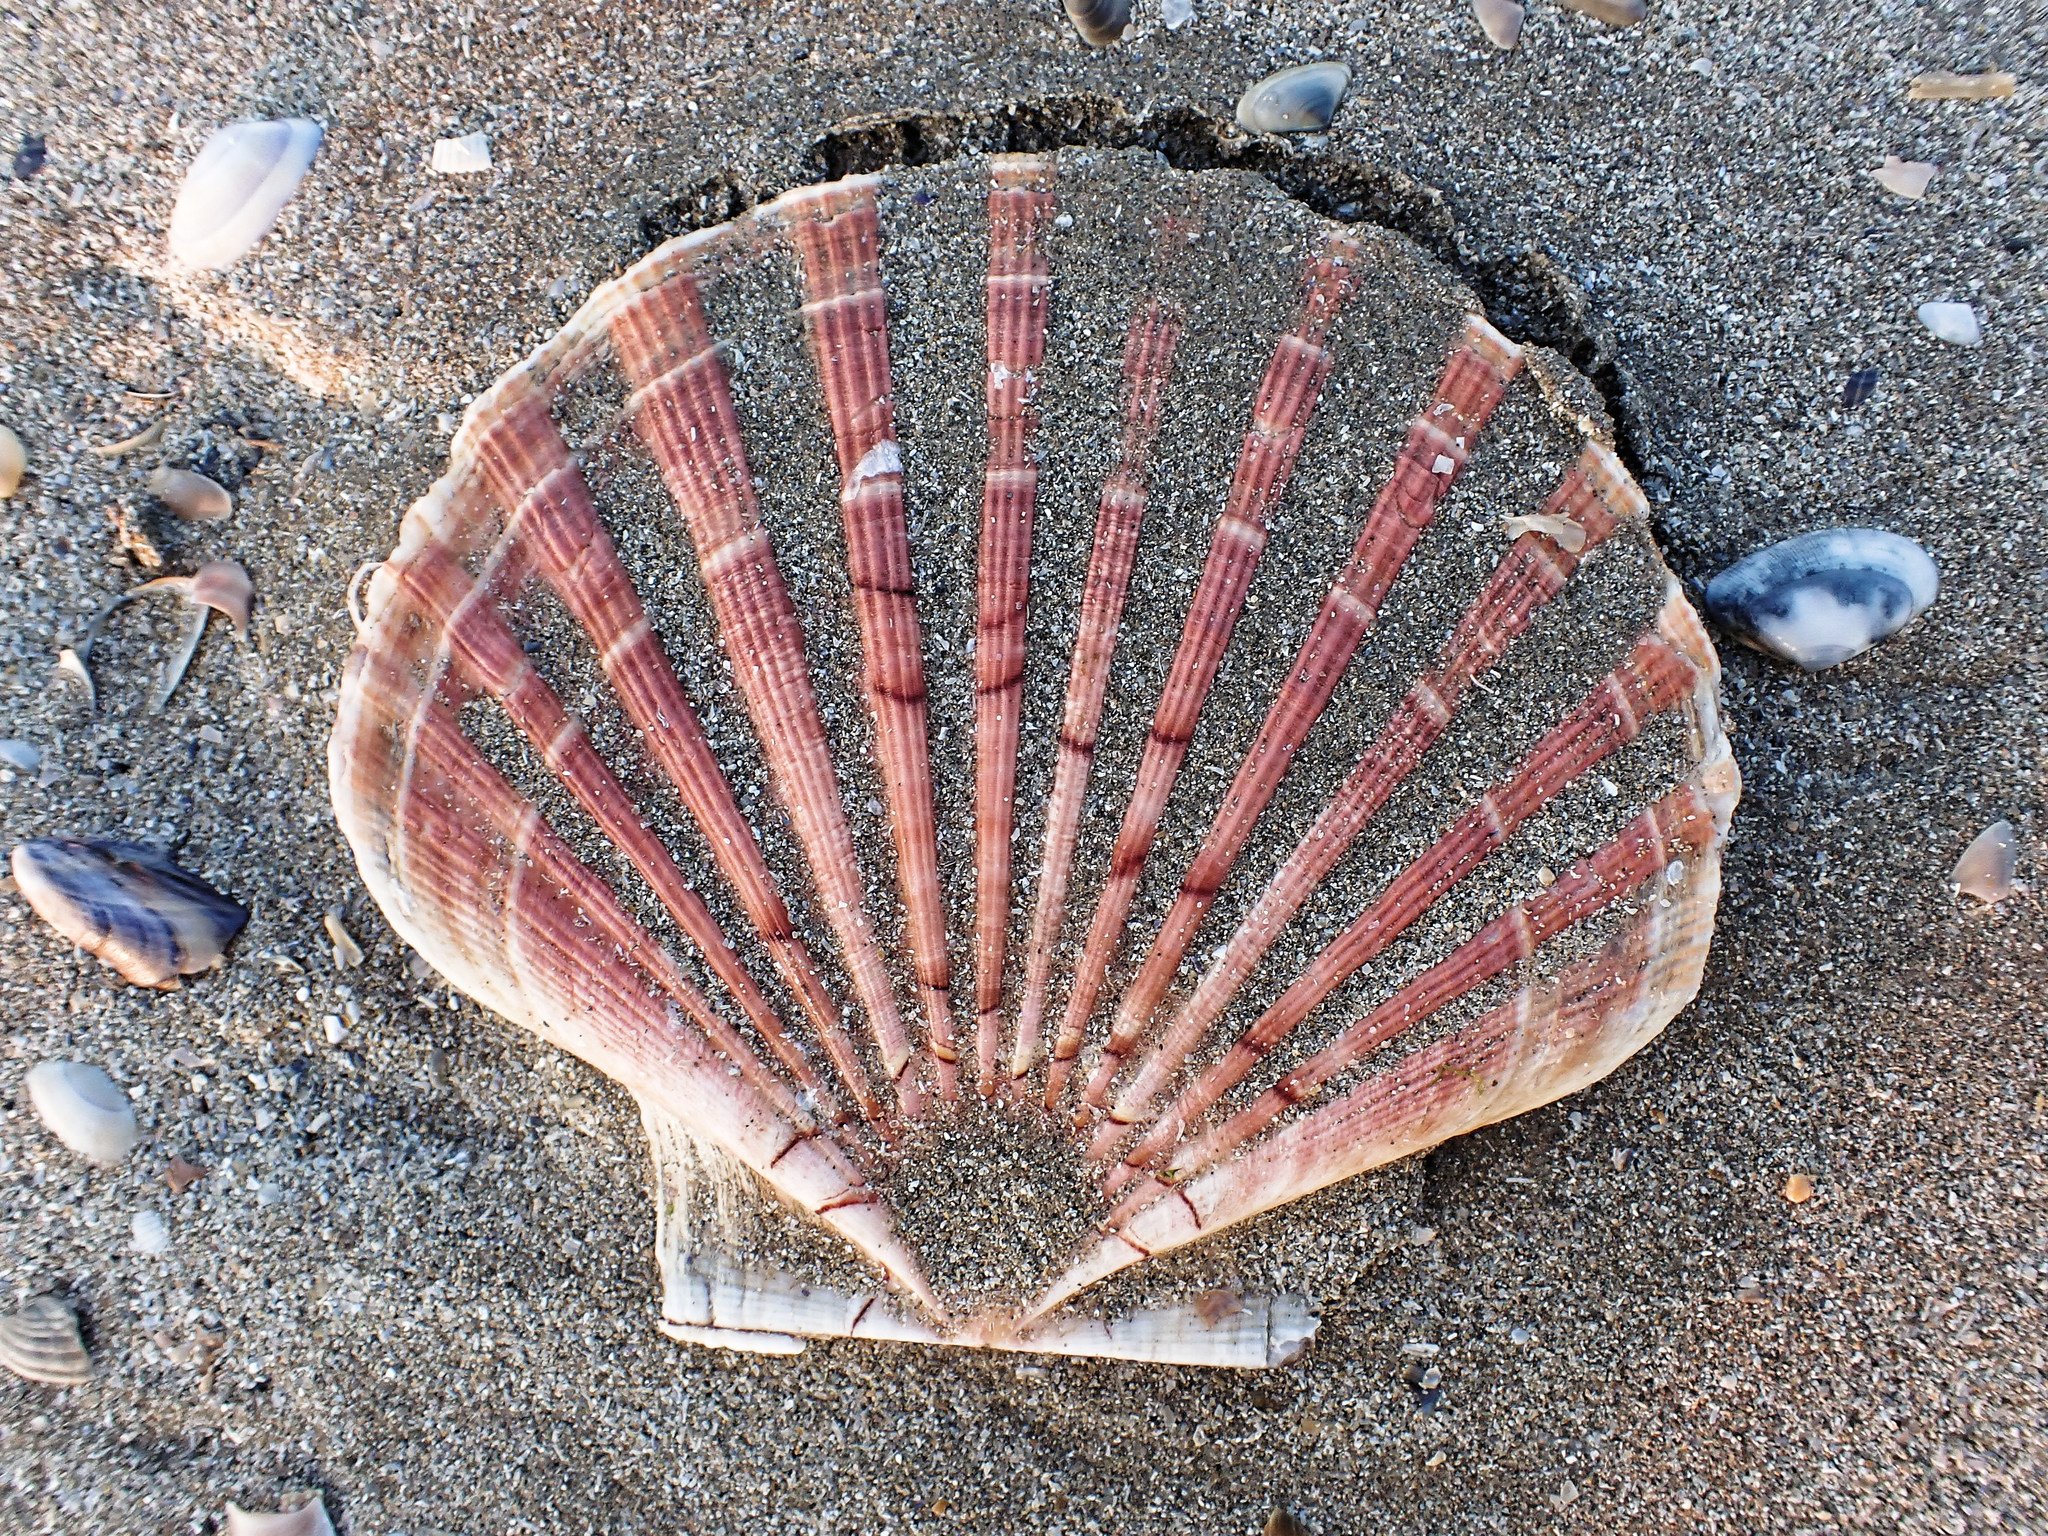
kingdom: Animalia
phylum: Mollusca
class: Bivalvia
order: Pectinida
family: Pectinidae
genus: Pecten
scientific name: Pecten maximus
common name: Great scallop
